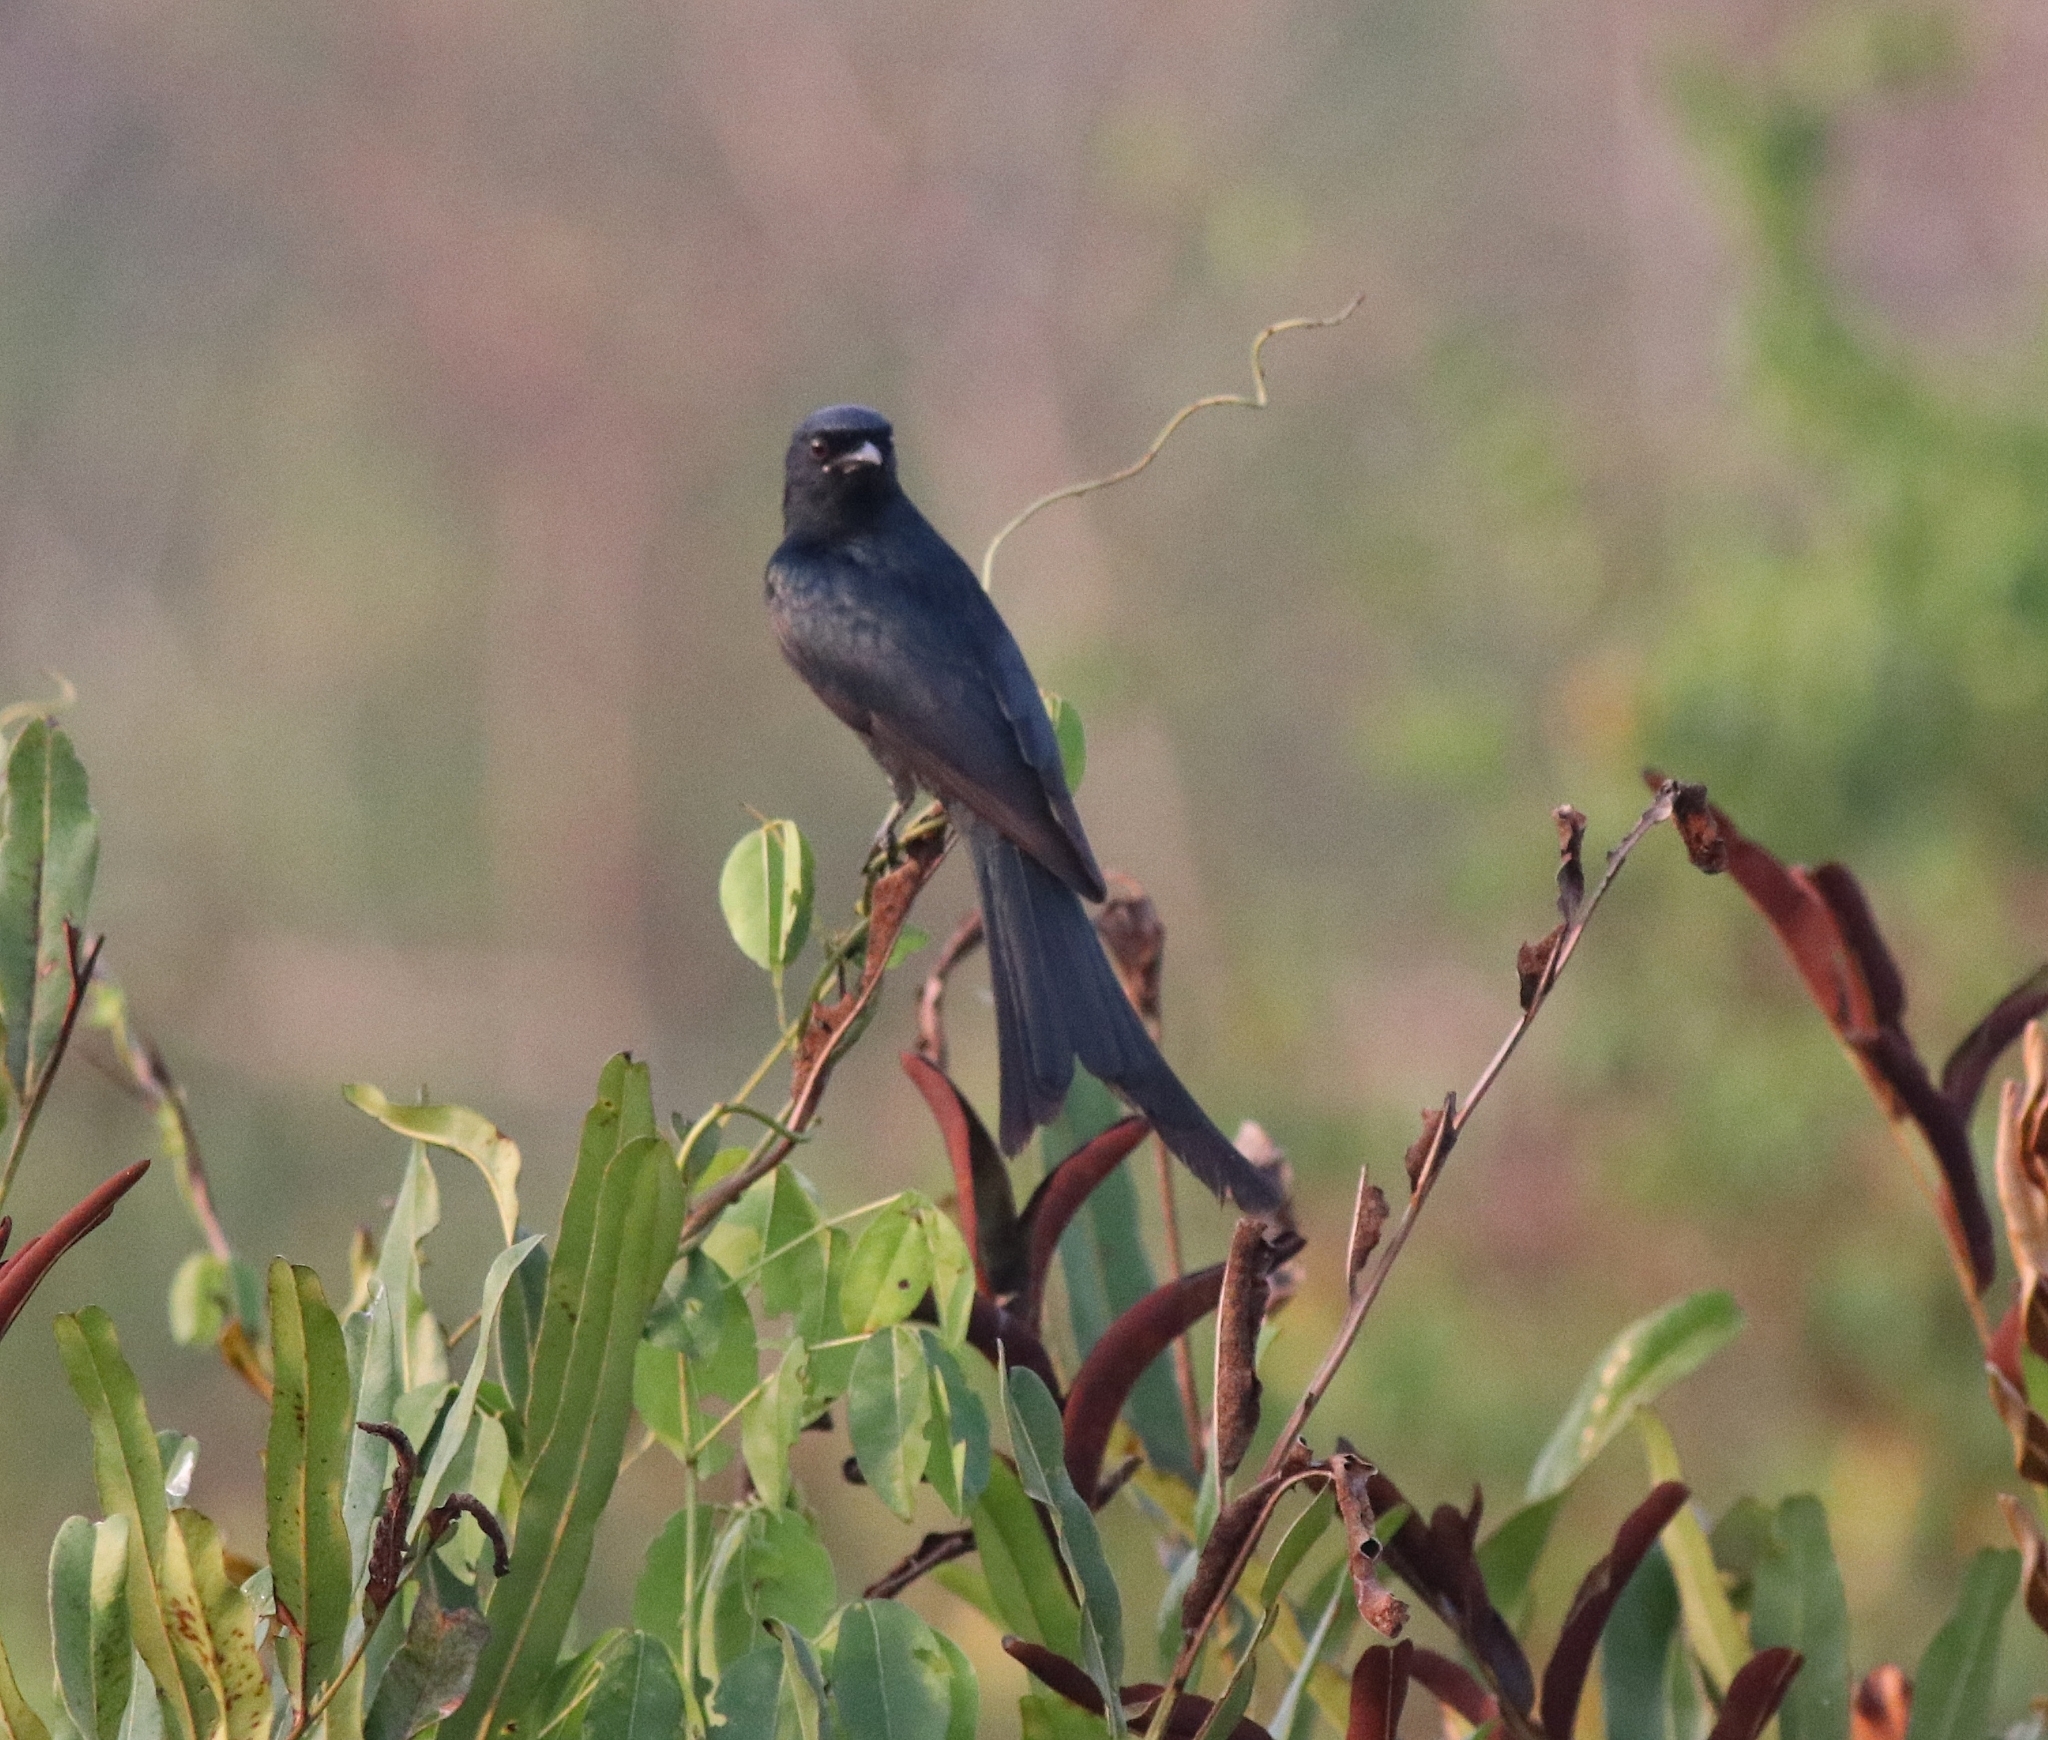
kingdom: Animalia
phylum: Chordata
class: Aves
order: Passeriformes
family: Dicruridae
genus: Dicrurus
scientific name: Dicrurus macrocercus
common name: Black drongo
